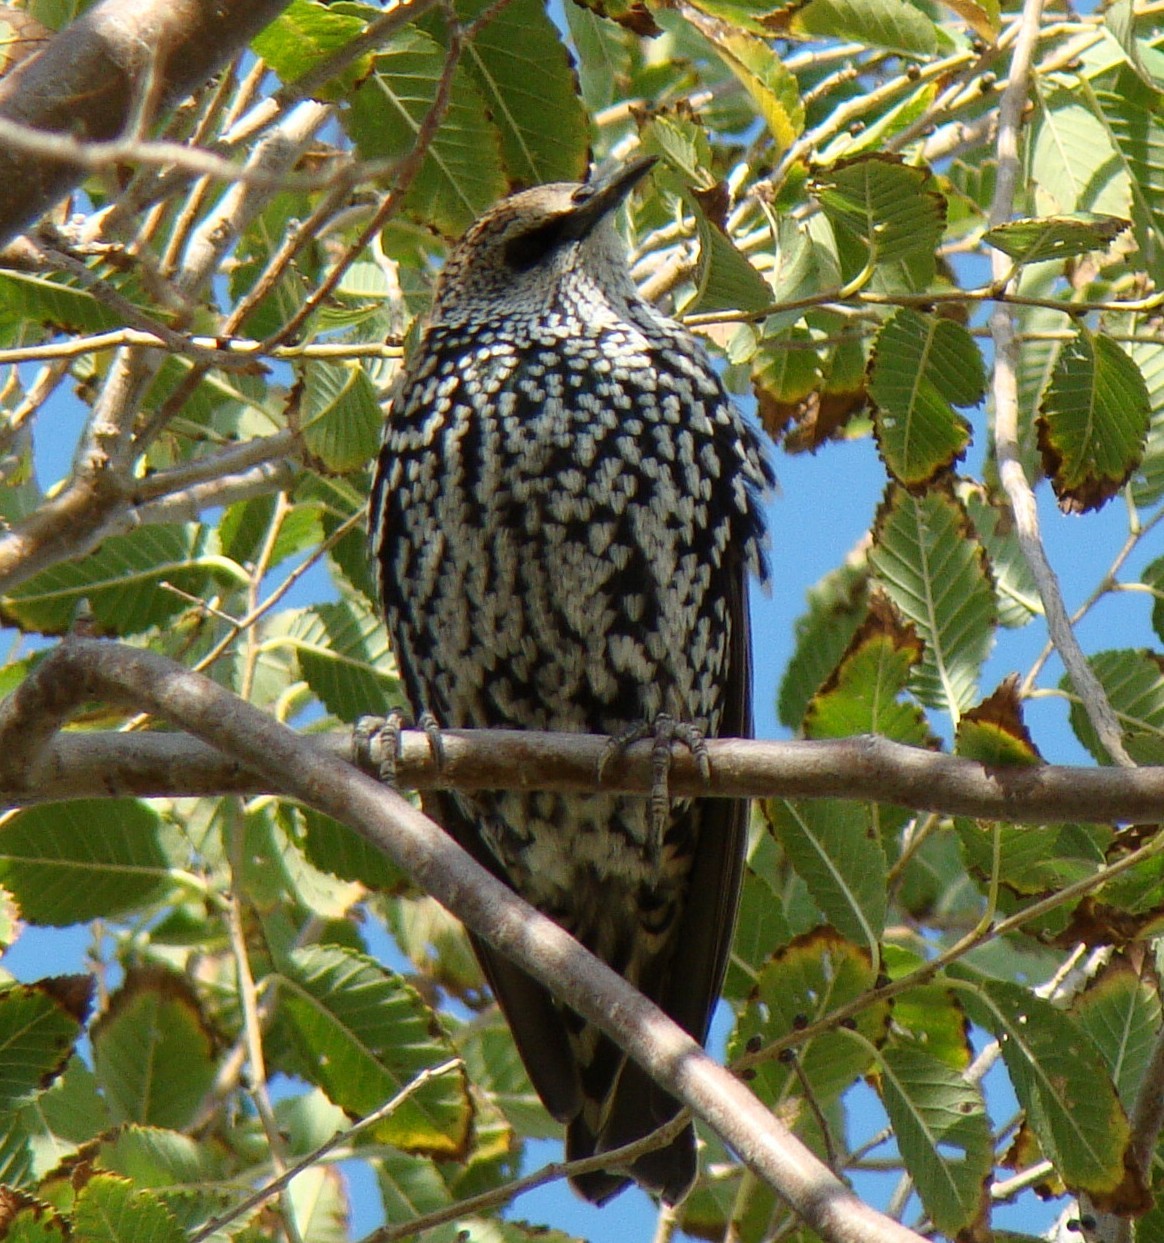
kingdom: Animalia
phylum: Chordata
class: Aves
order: Passeriformes
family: Sturnidae
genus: Sturnus
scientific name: Sturnus vulgaris
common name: Common starling
